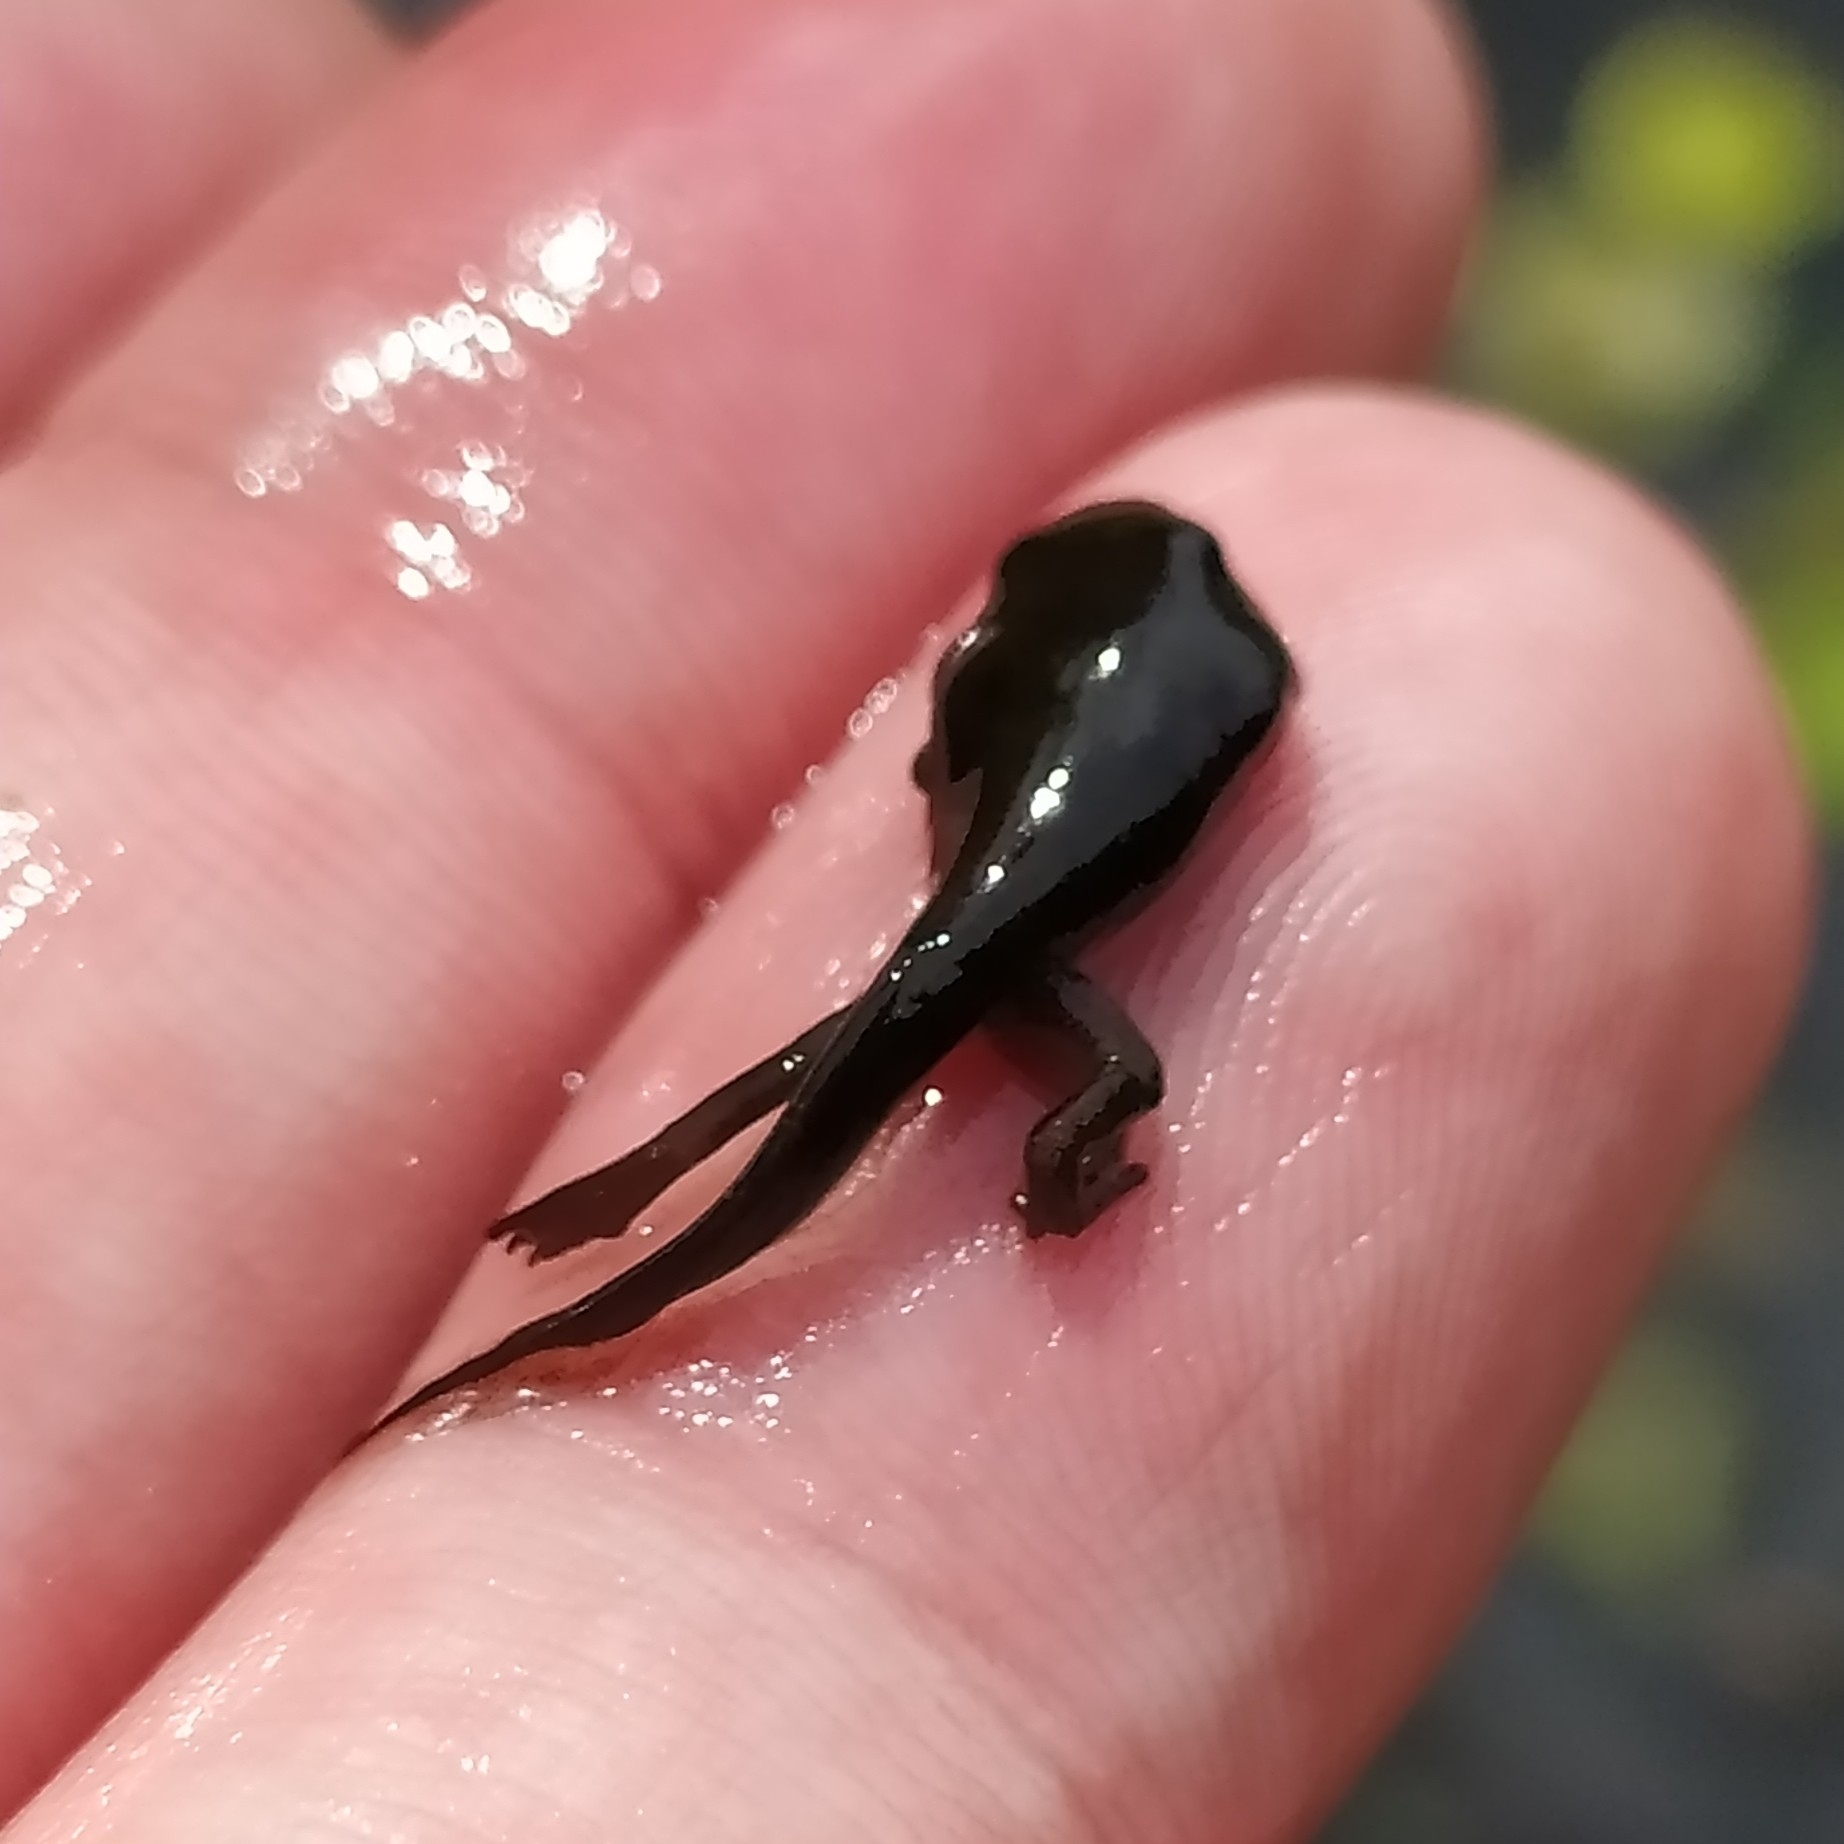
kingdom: Animalia
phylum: Chordata
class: Amphibia
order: Anura
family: Bufonidae
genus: Bufo
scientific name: Bufo bufo
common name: Common toad
